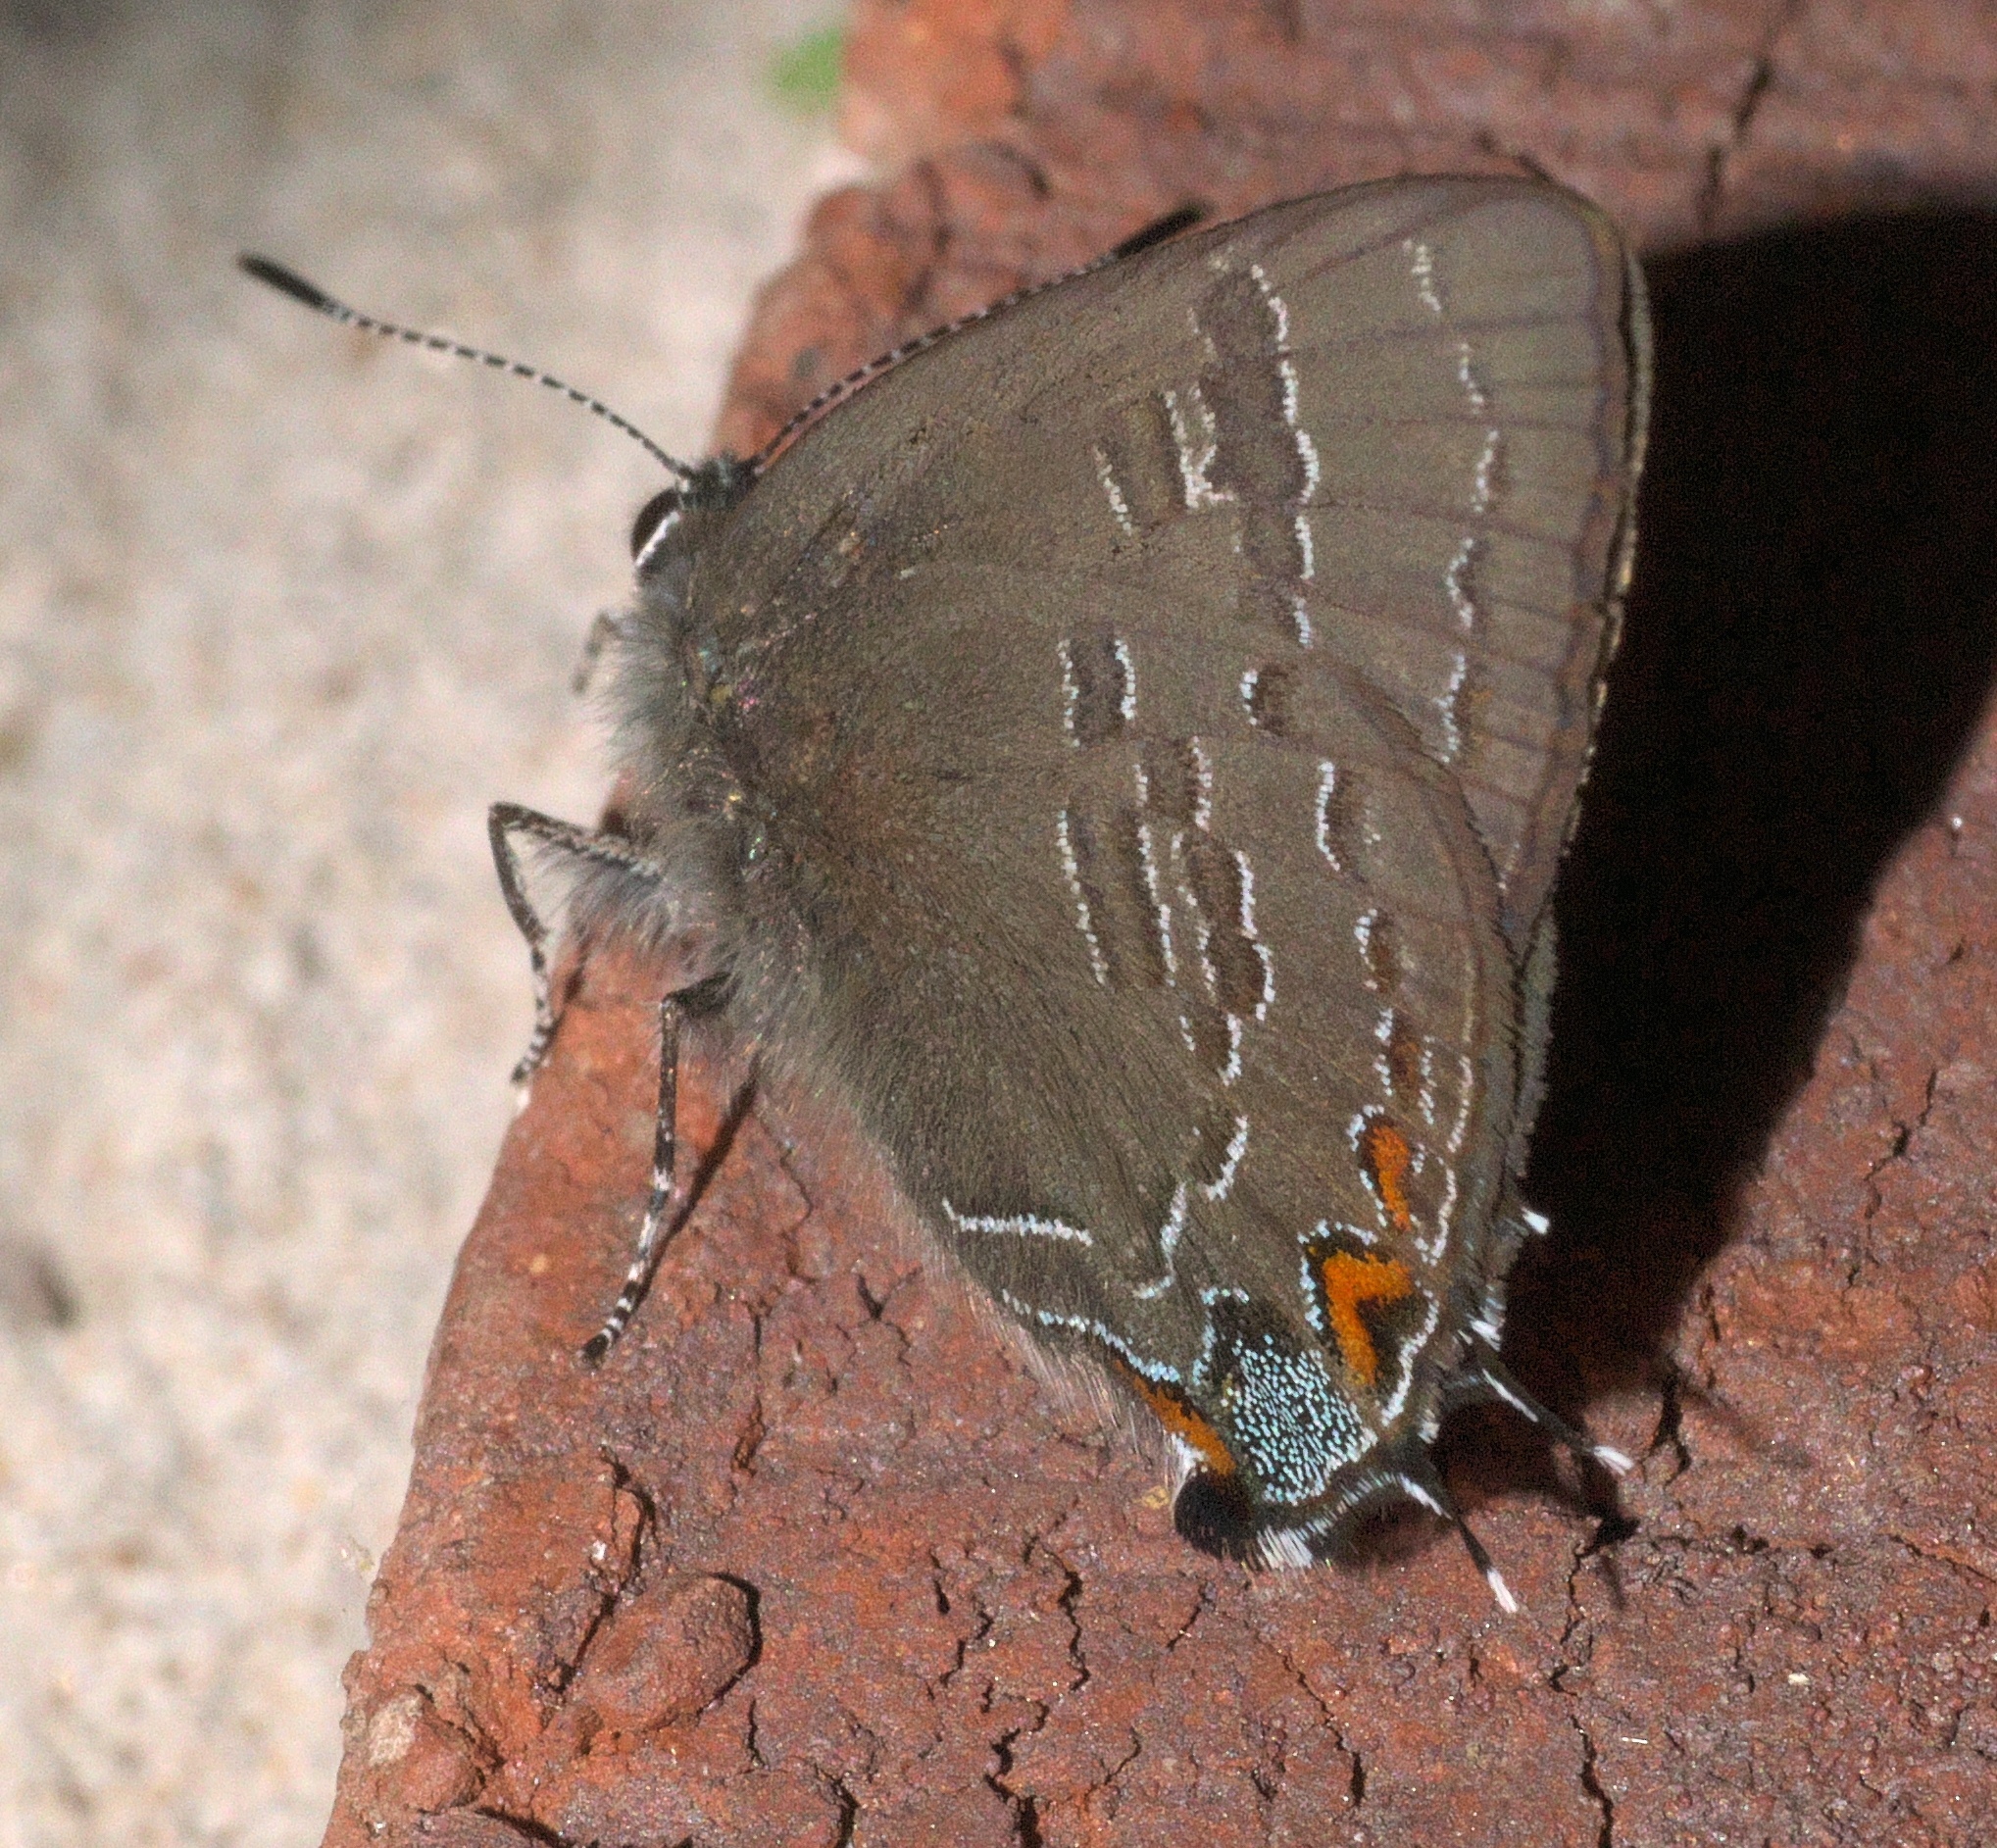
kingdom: Animalia
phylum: Arthropoda
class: Insecta
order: Lepidoptera
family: Lycaenidae
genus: Satyrium
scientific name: Satyrium calanus
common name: Banded hairstreak
